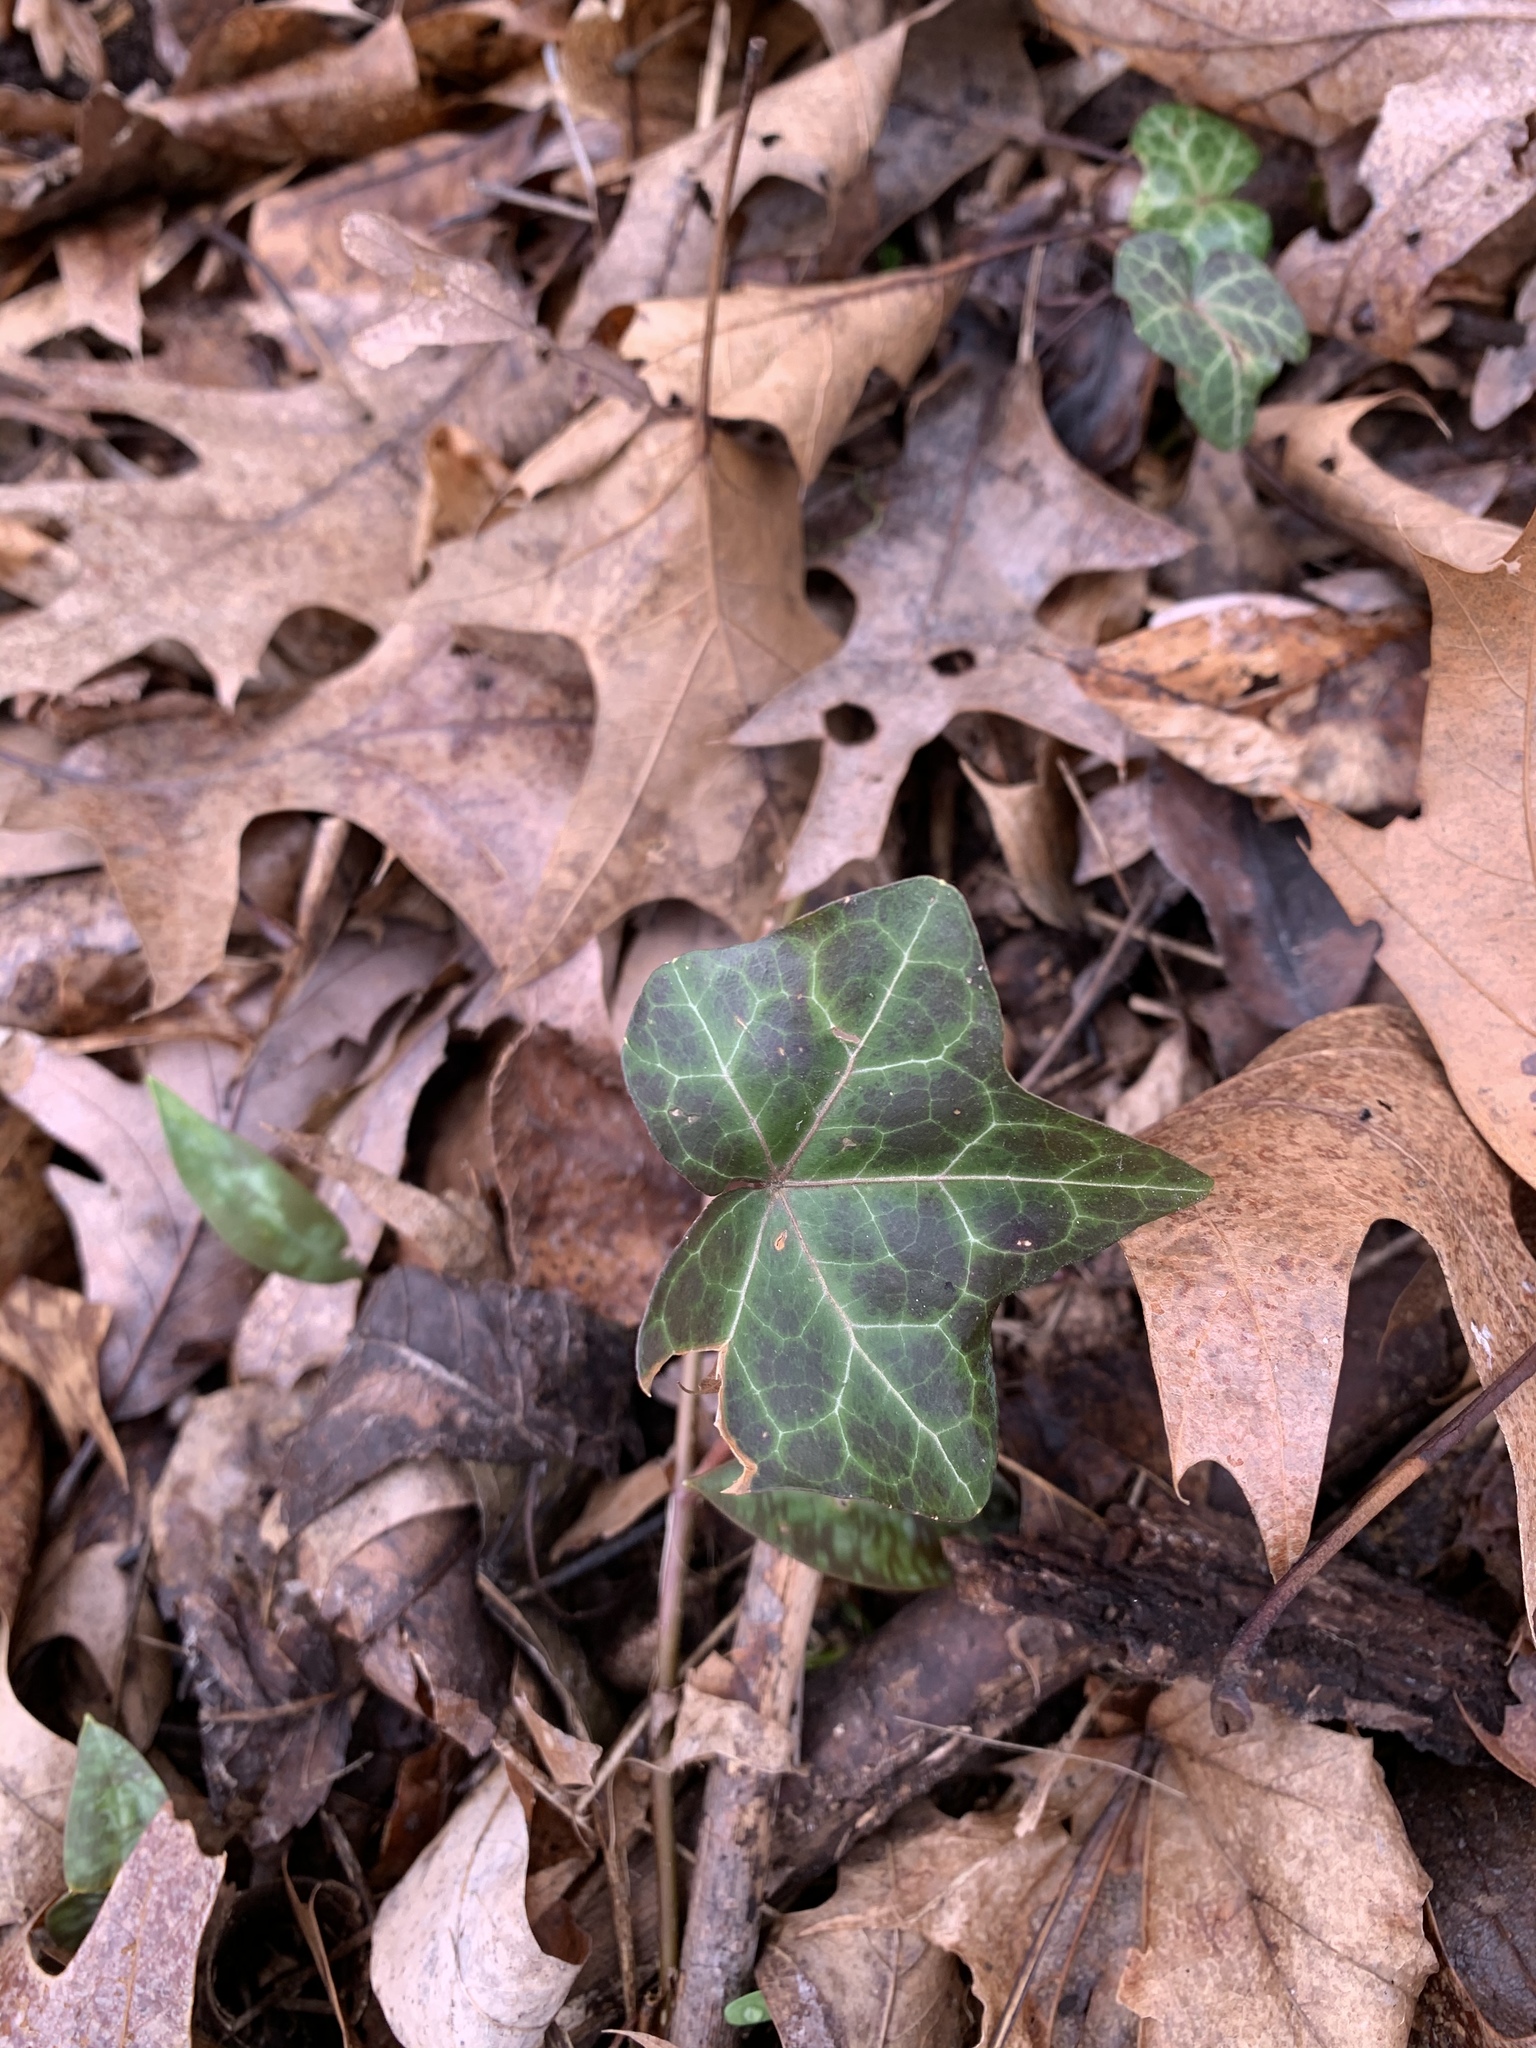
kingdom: Plantae
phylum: Tracheophyta
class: Magnoliopsida
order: Apiales
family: Araliaceae
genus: Hedera
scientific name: Hedera helix
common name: Ivy
